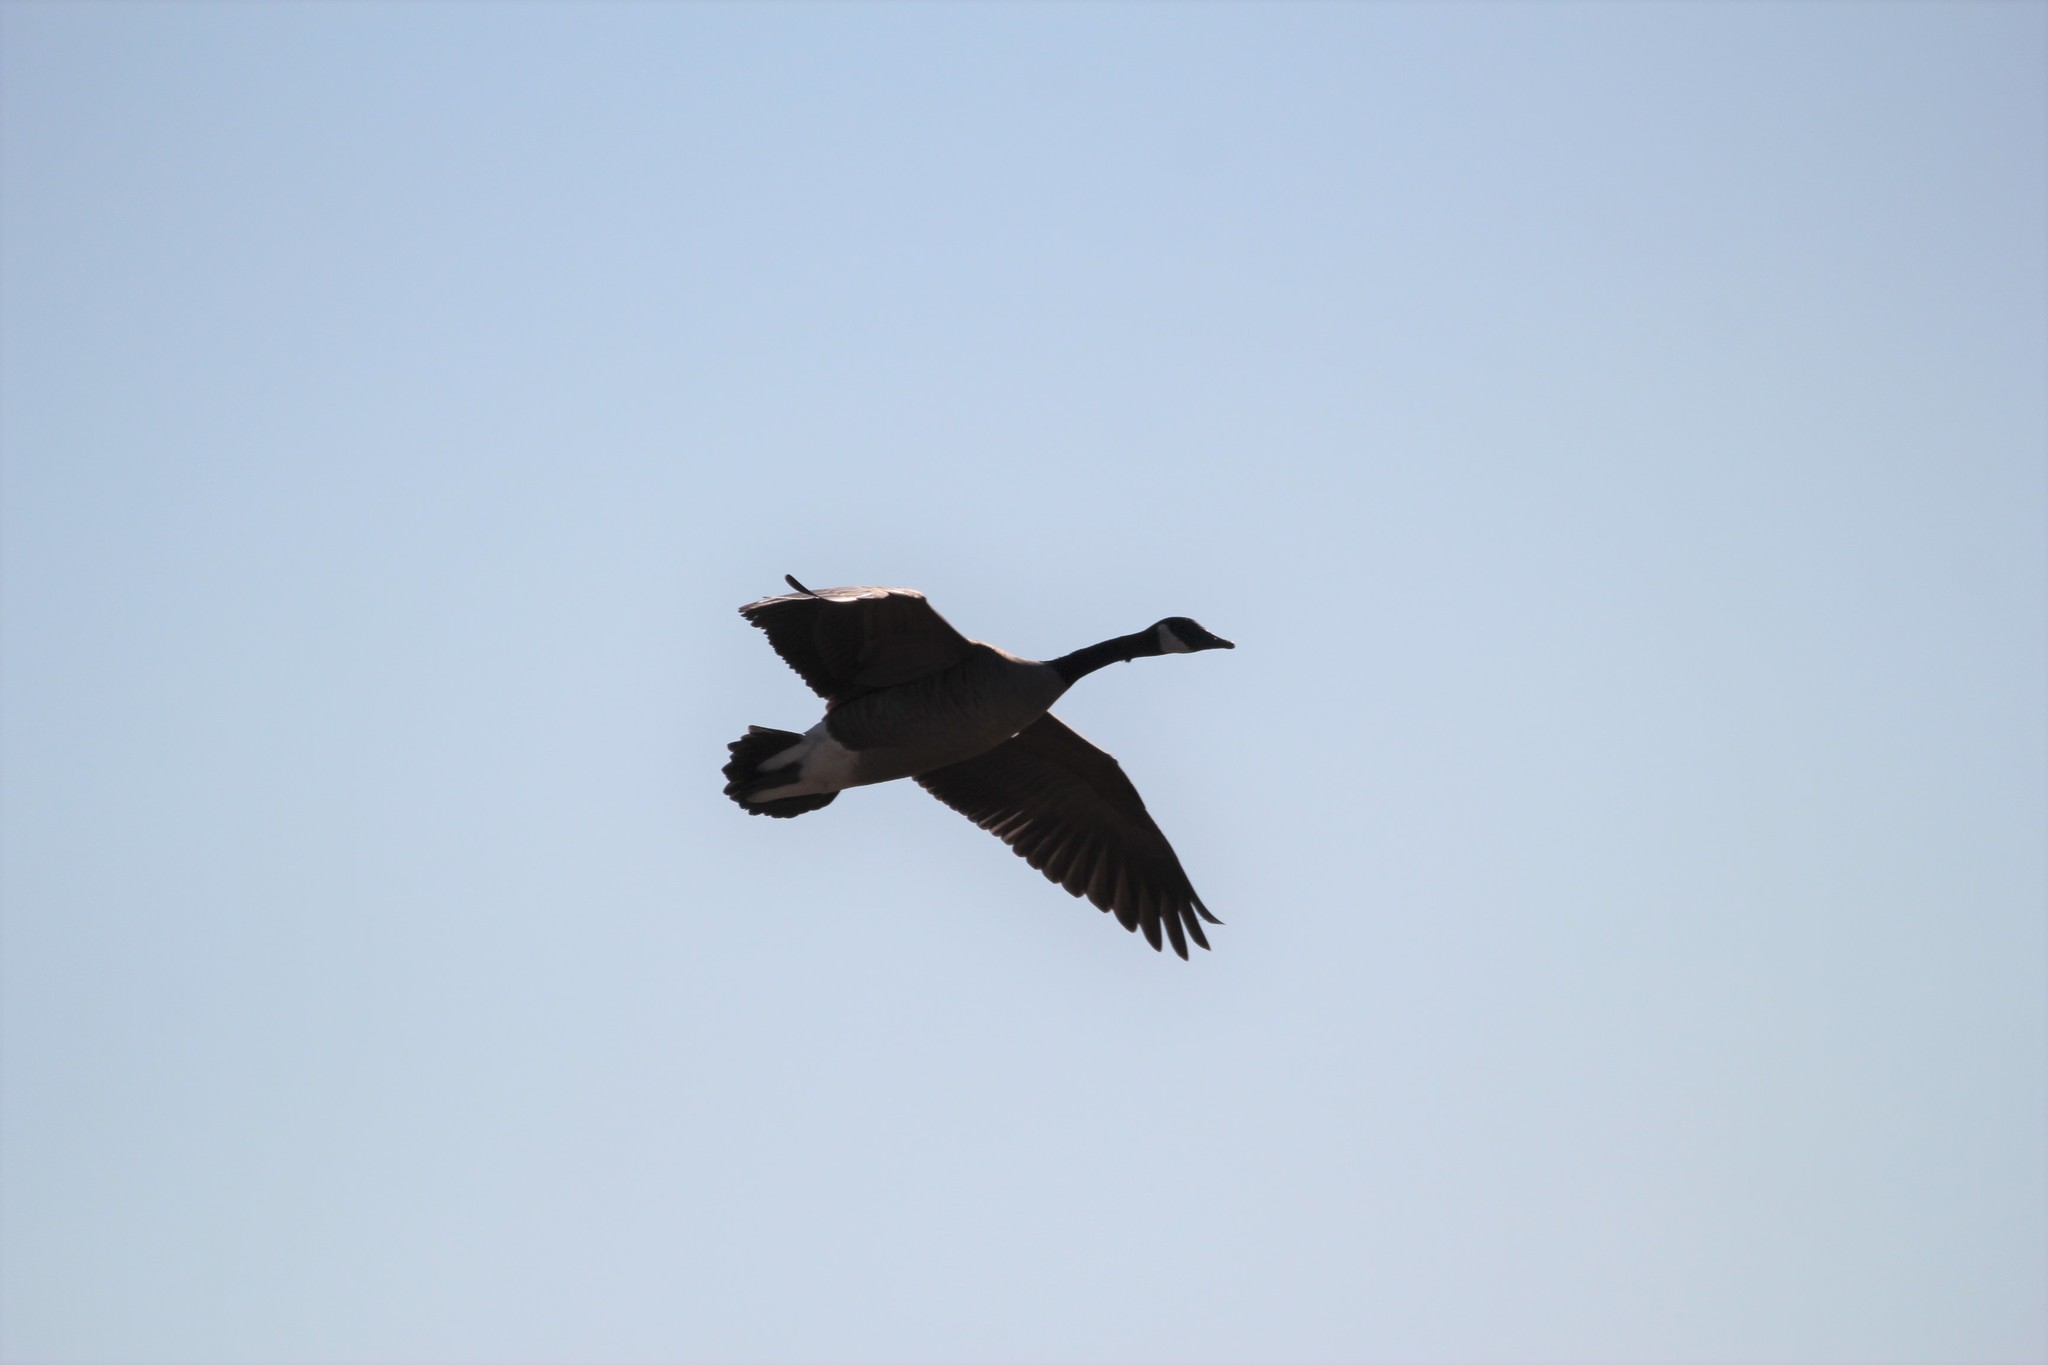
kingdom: Animalia
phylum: Chordata
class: Aves
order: Anseriformes
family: Anatidae
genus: Branta
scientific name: Branta canadensis
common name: Canada goose
